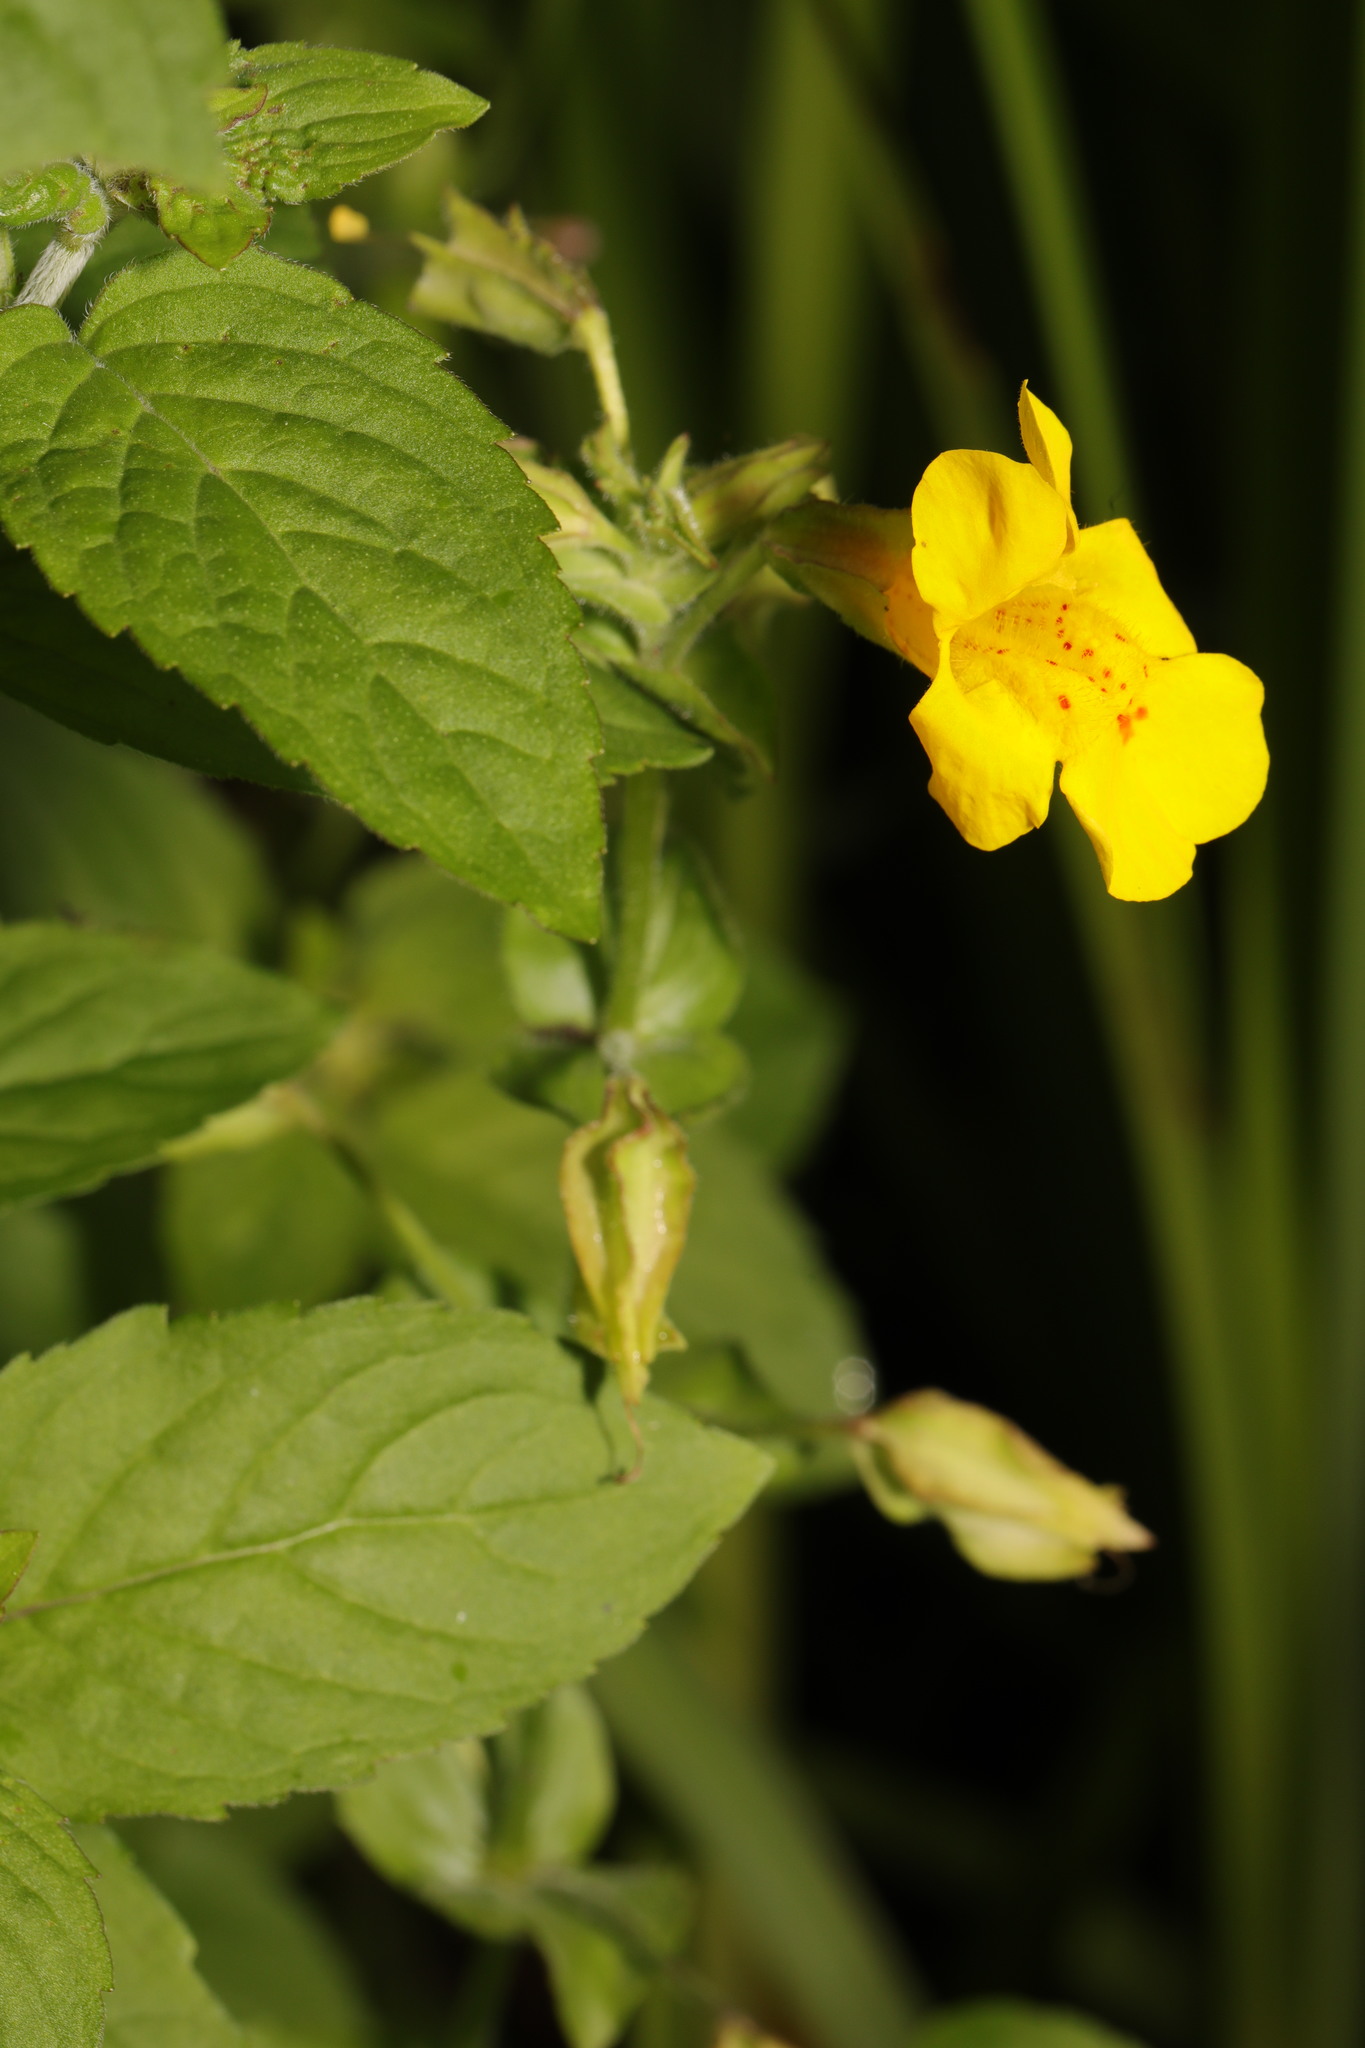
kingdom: Plantae
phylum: Tracheophyta
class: Magnoliopsida
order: Lamiales
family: Phrymaceae
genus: Erythranthe
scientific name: Erythranthe guttata
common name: Monkeyflower
